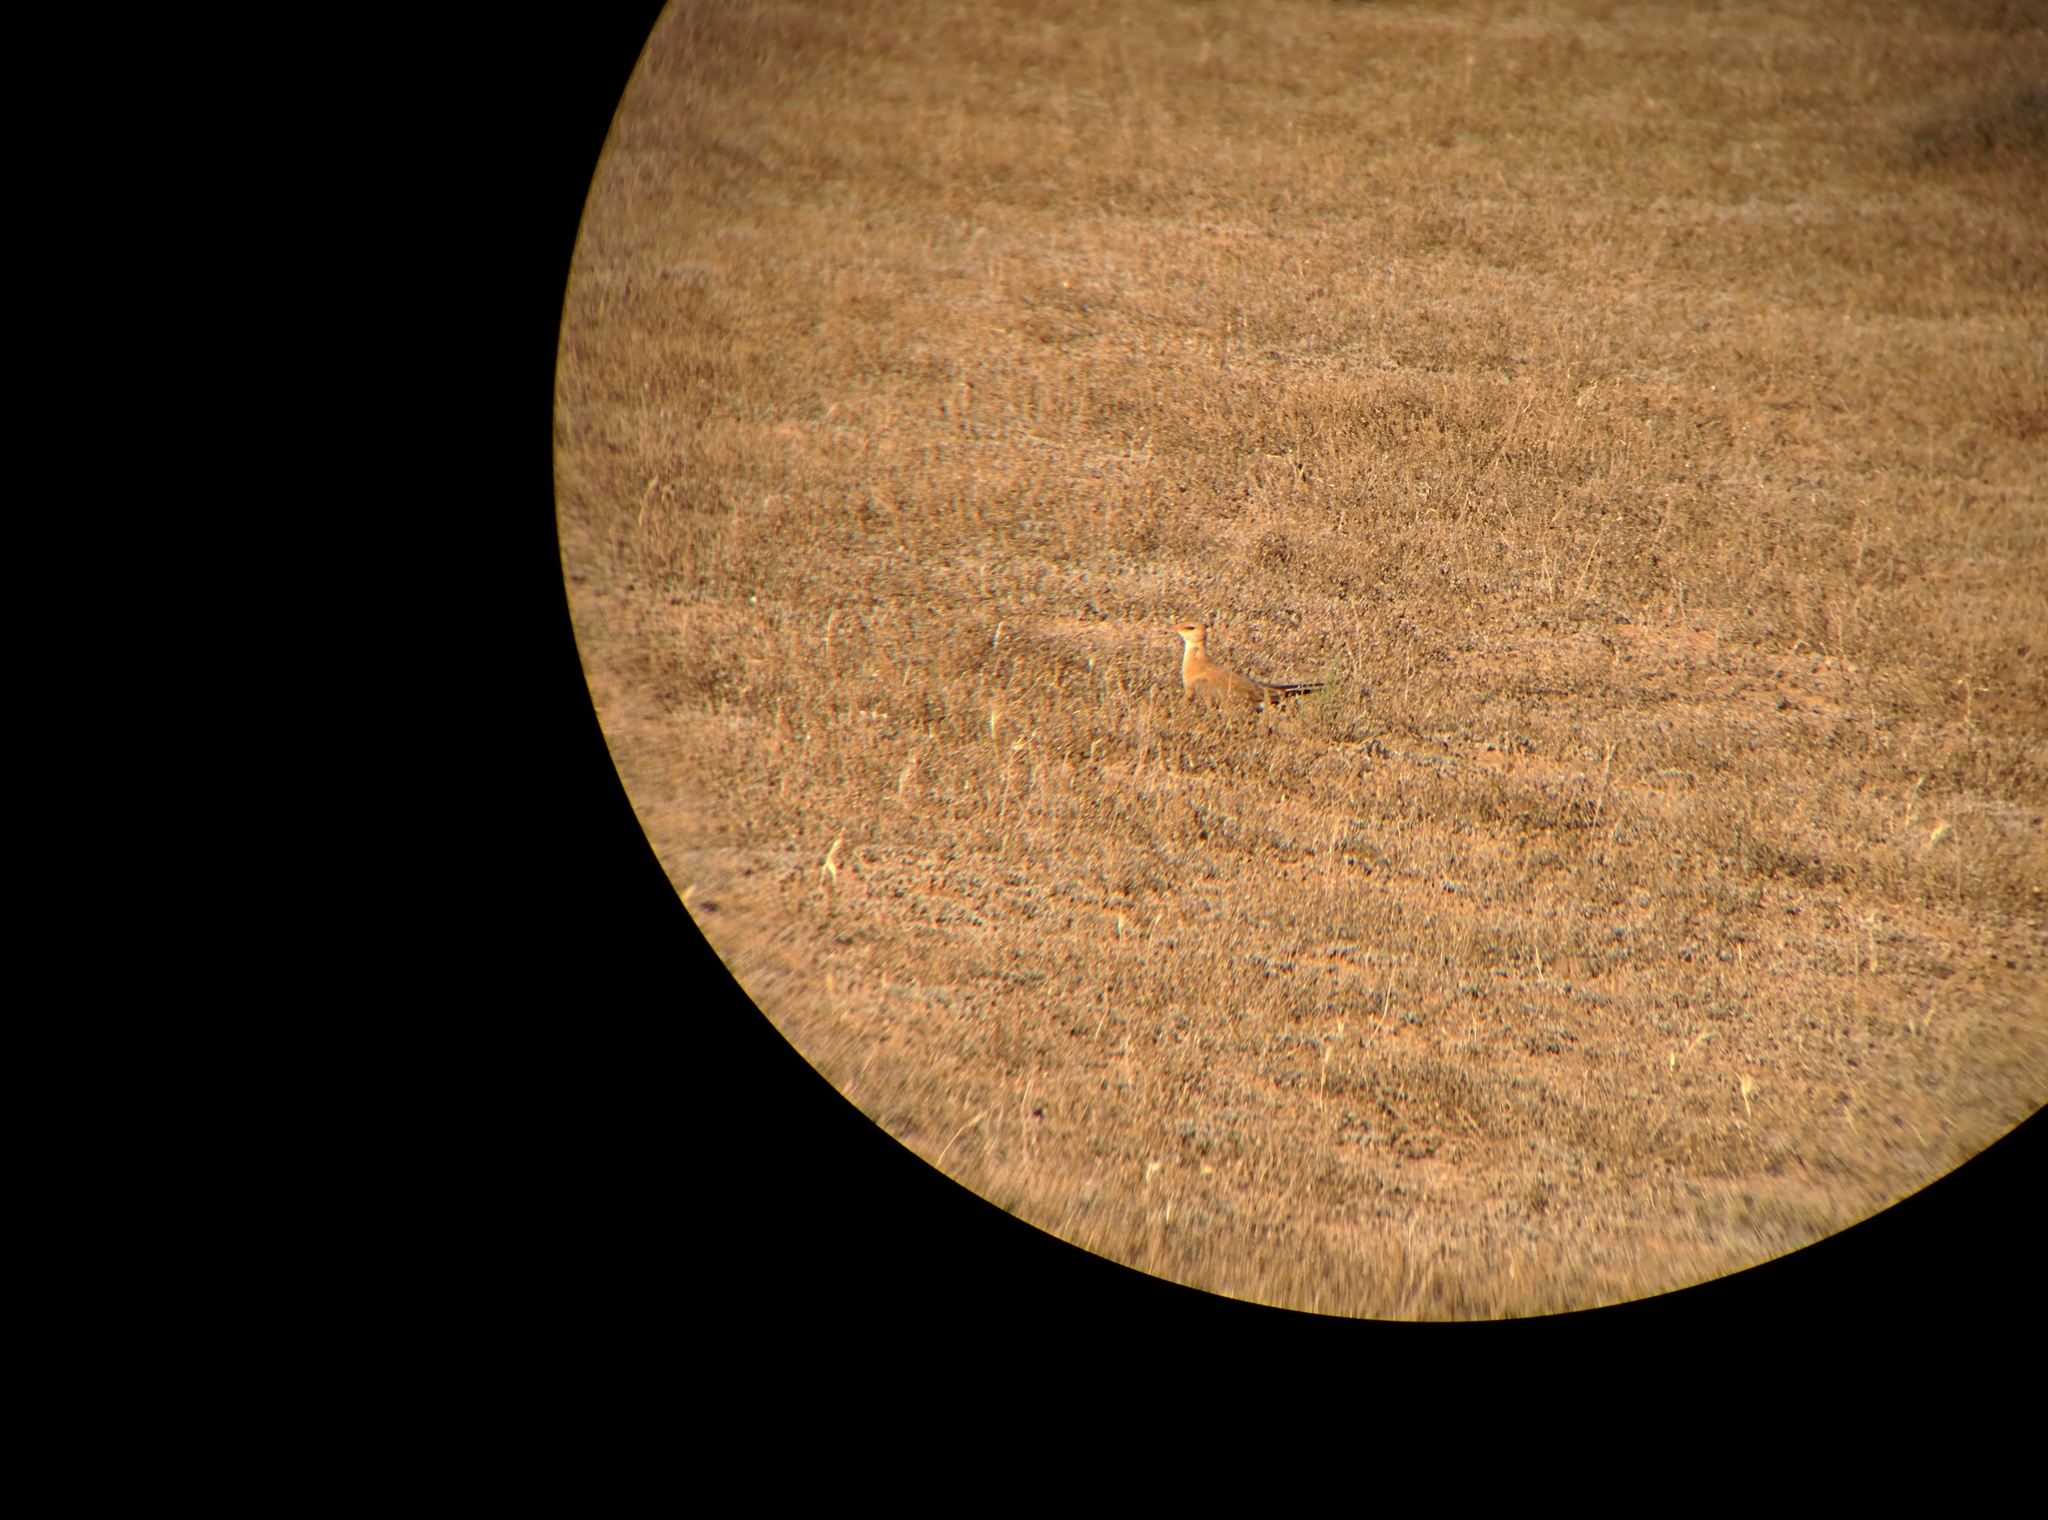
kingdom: Animalia
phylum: Chordata
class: Aves
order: Charadriiformes
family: Glareolidae
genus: Stiltia
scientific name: Stiltia isabella
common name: Australian pratincole
